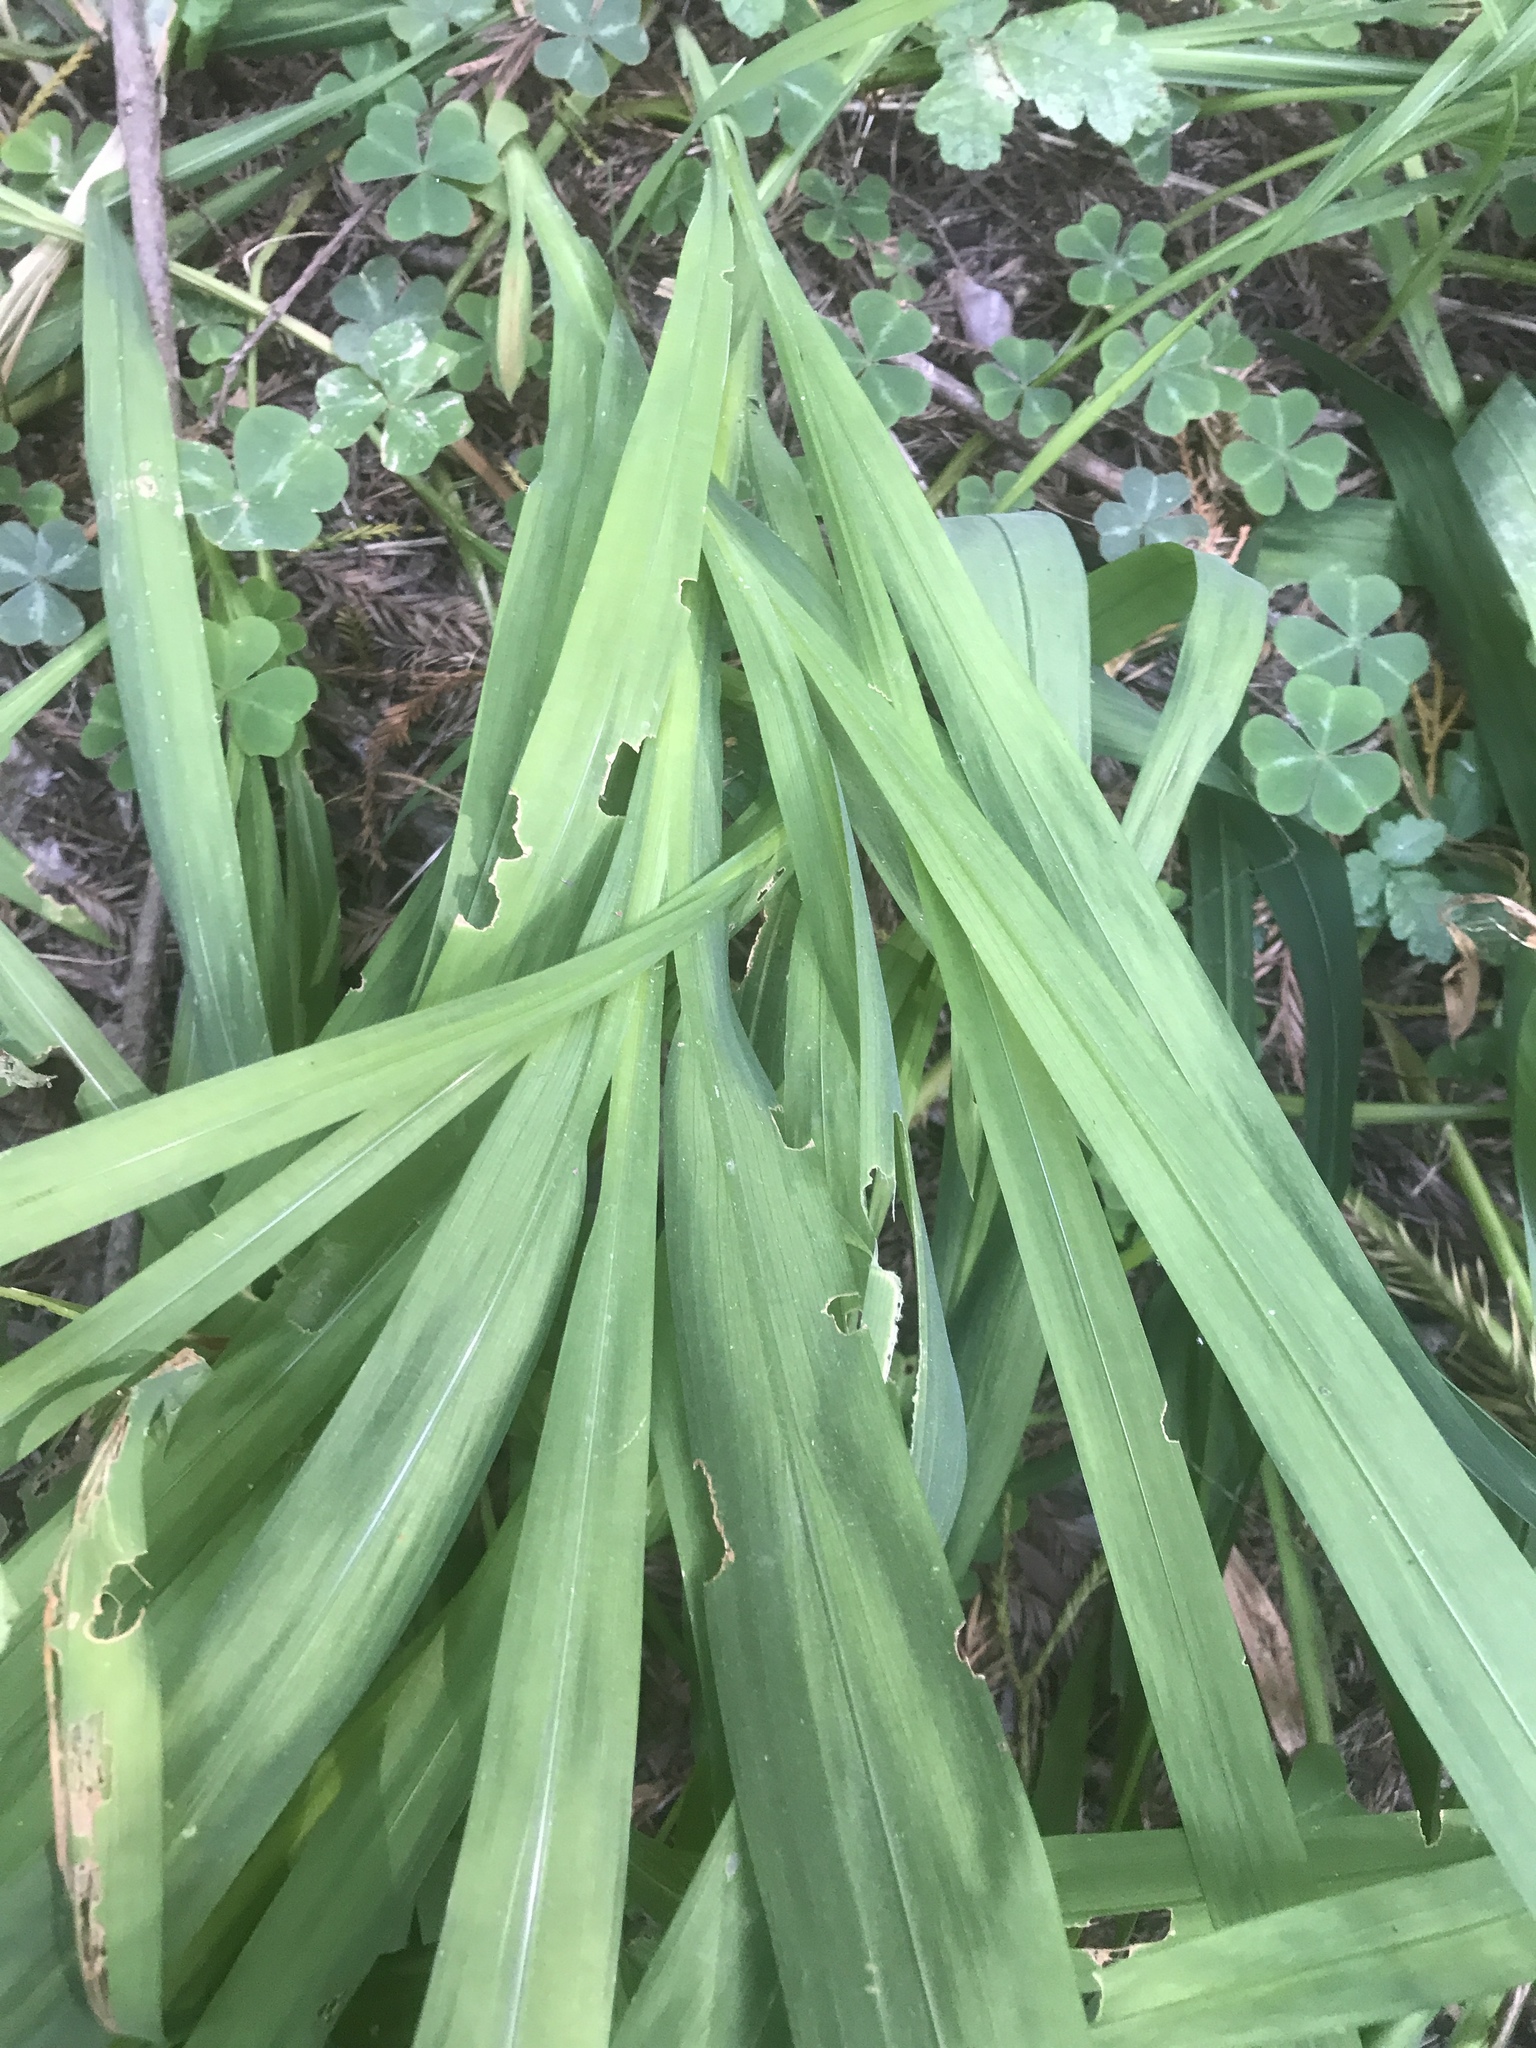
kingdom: Plantae
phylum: Tracheophyta
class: Liliopsida
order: Asparagales
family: Iridaceae
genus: Crocosmia
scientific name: Crocosmia crocosmiiflora
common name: Montbretia
